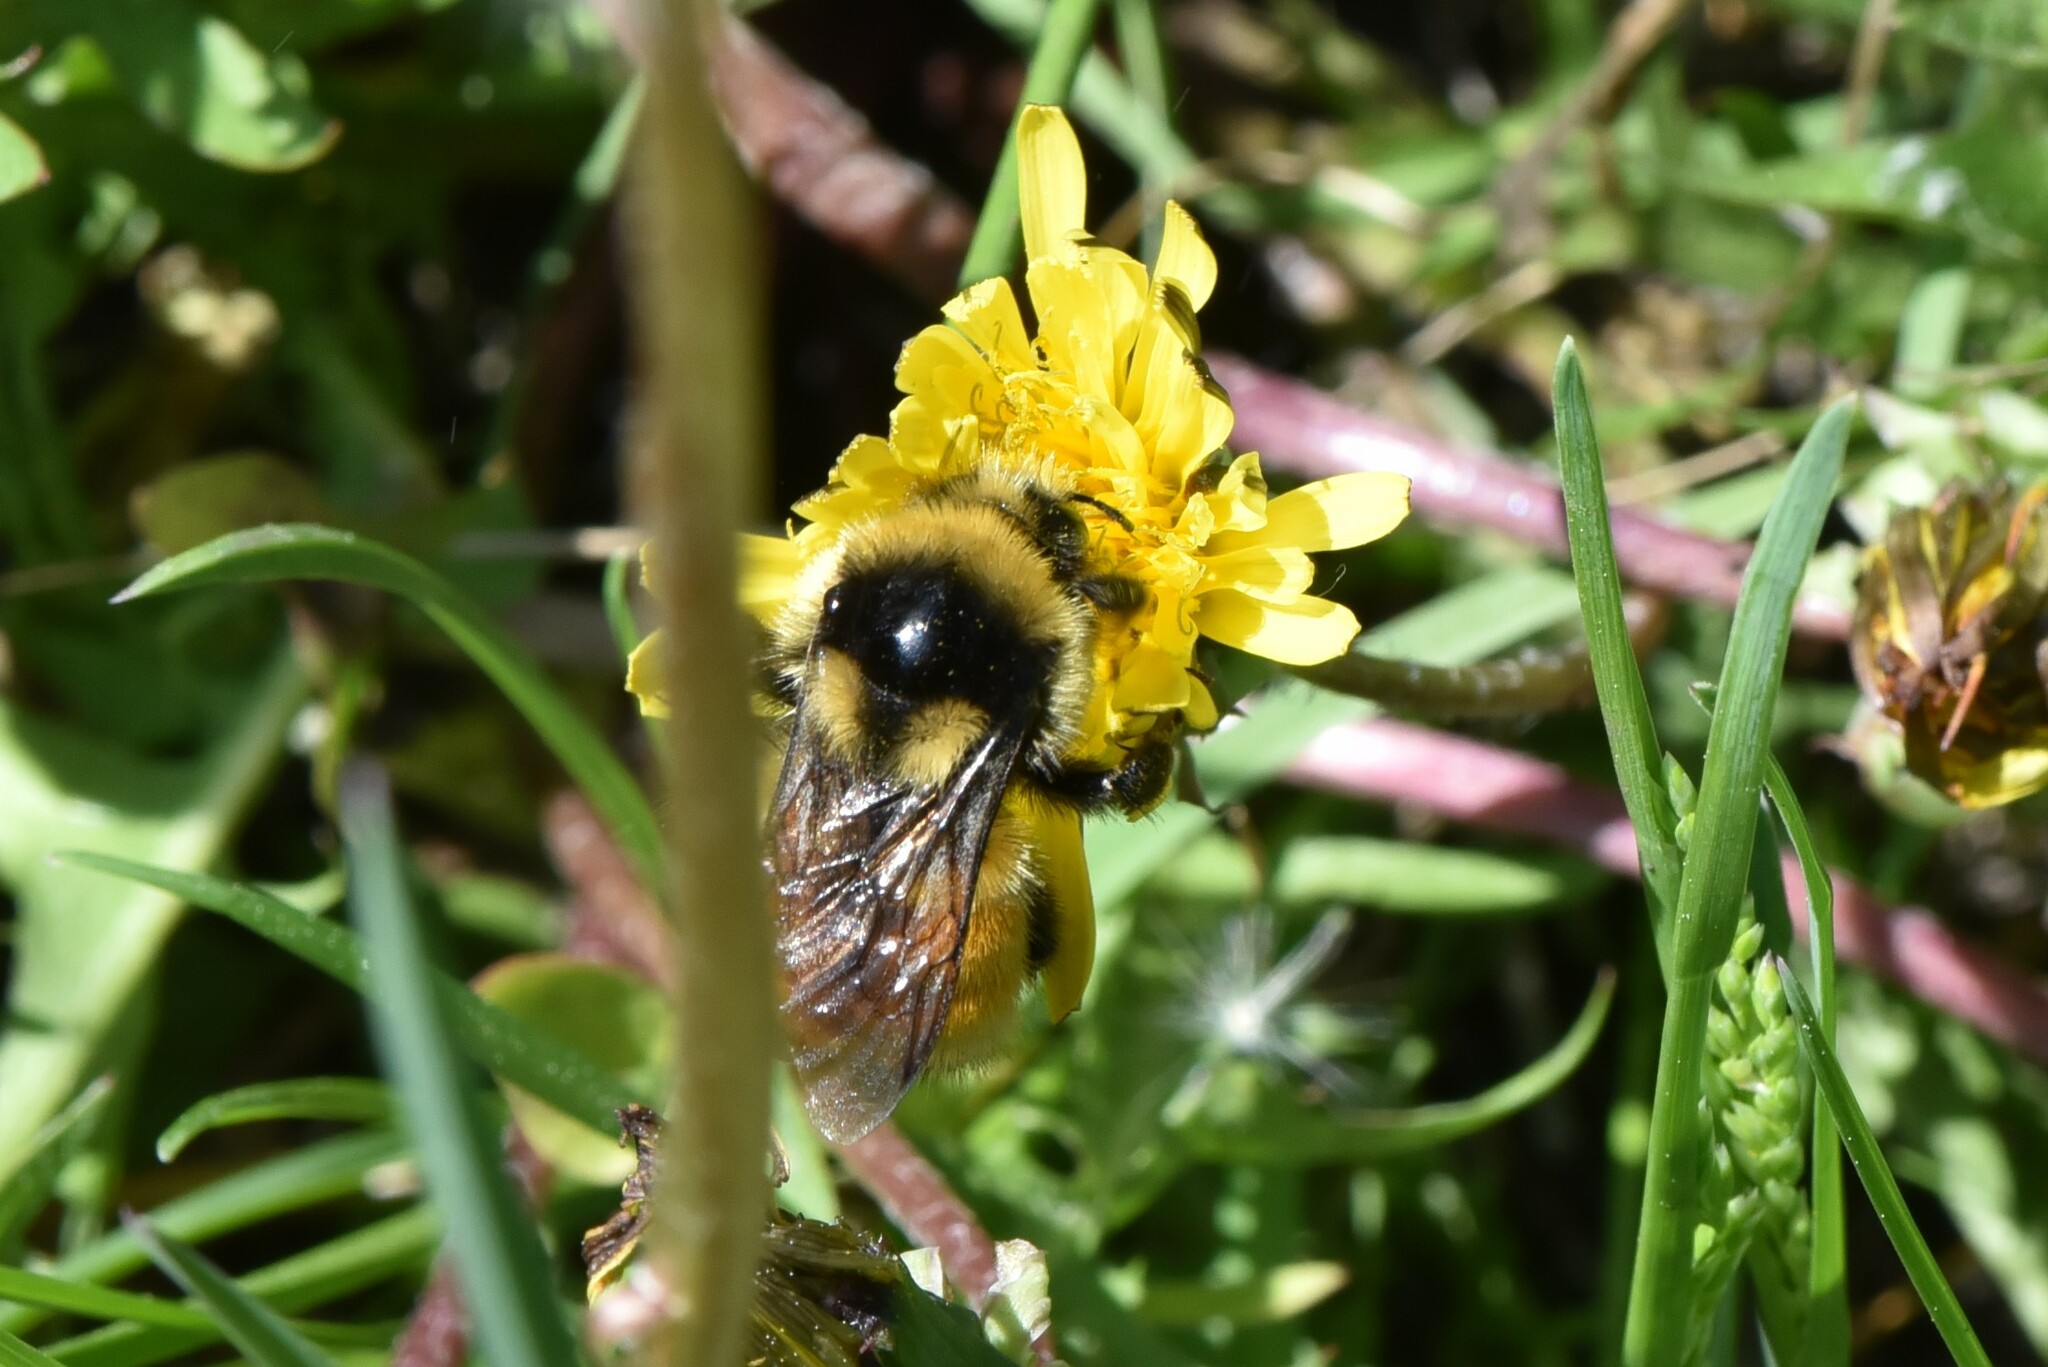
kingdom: Animalia
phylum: Arthropoda
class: Insecta
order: Hymenoptera
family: Apidae
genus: Bombus
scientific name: Bombus vancouverensis
